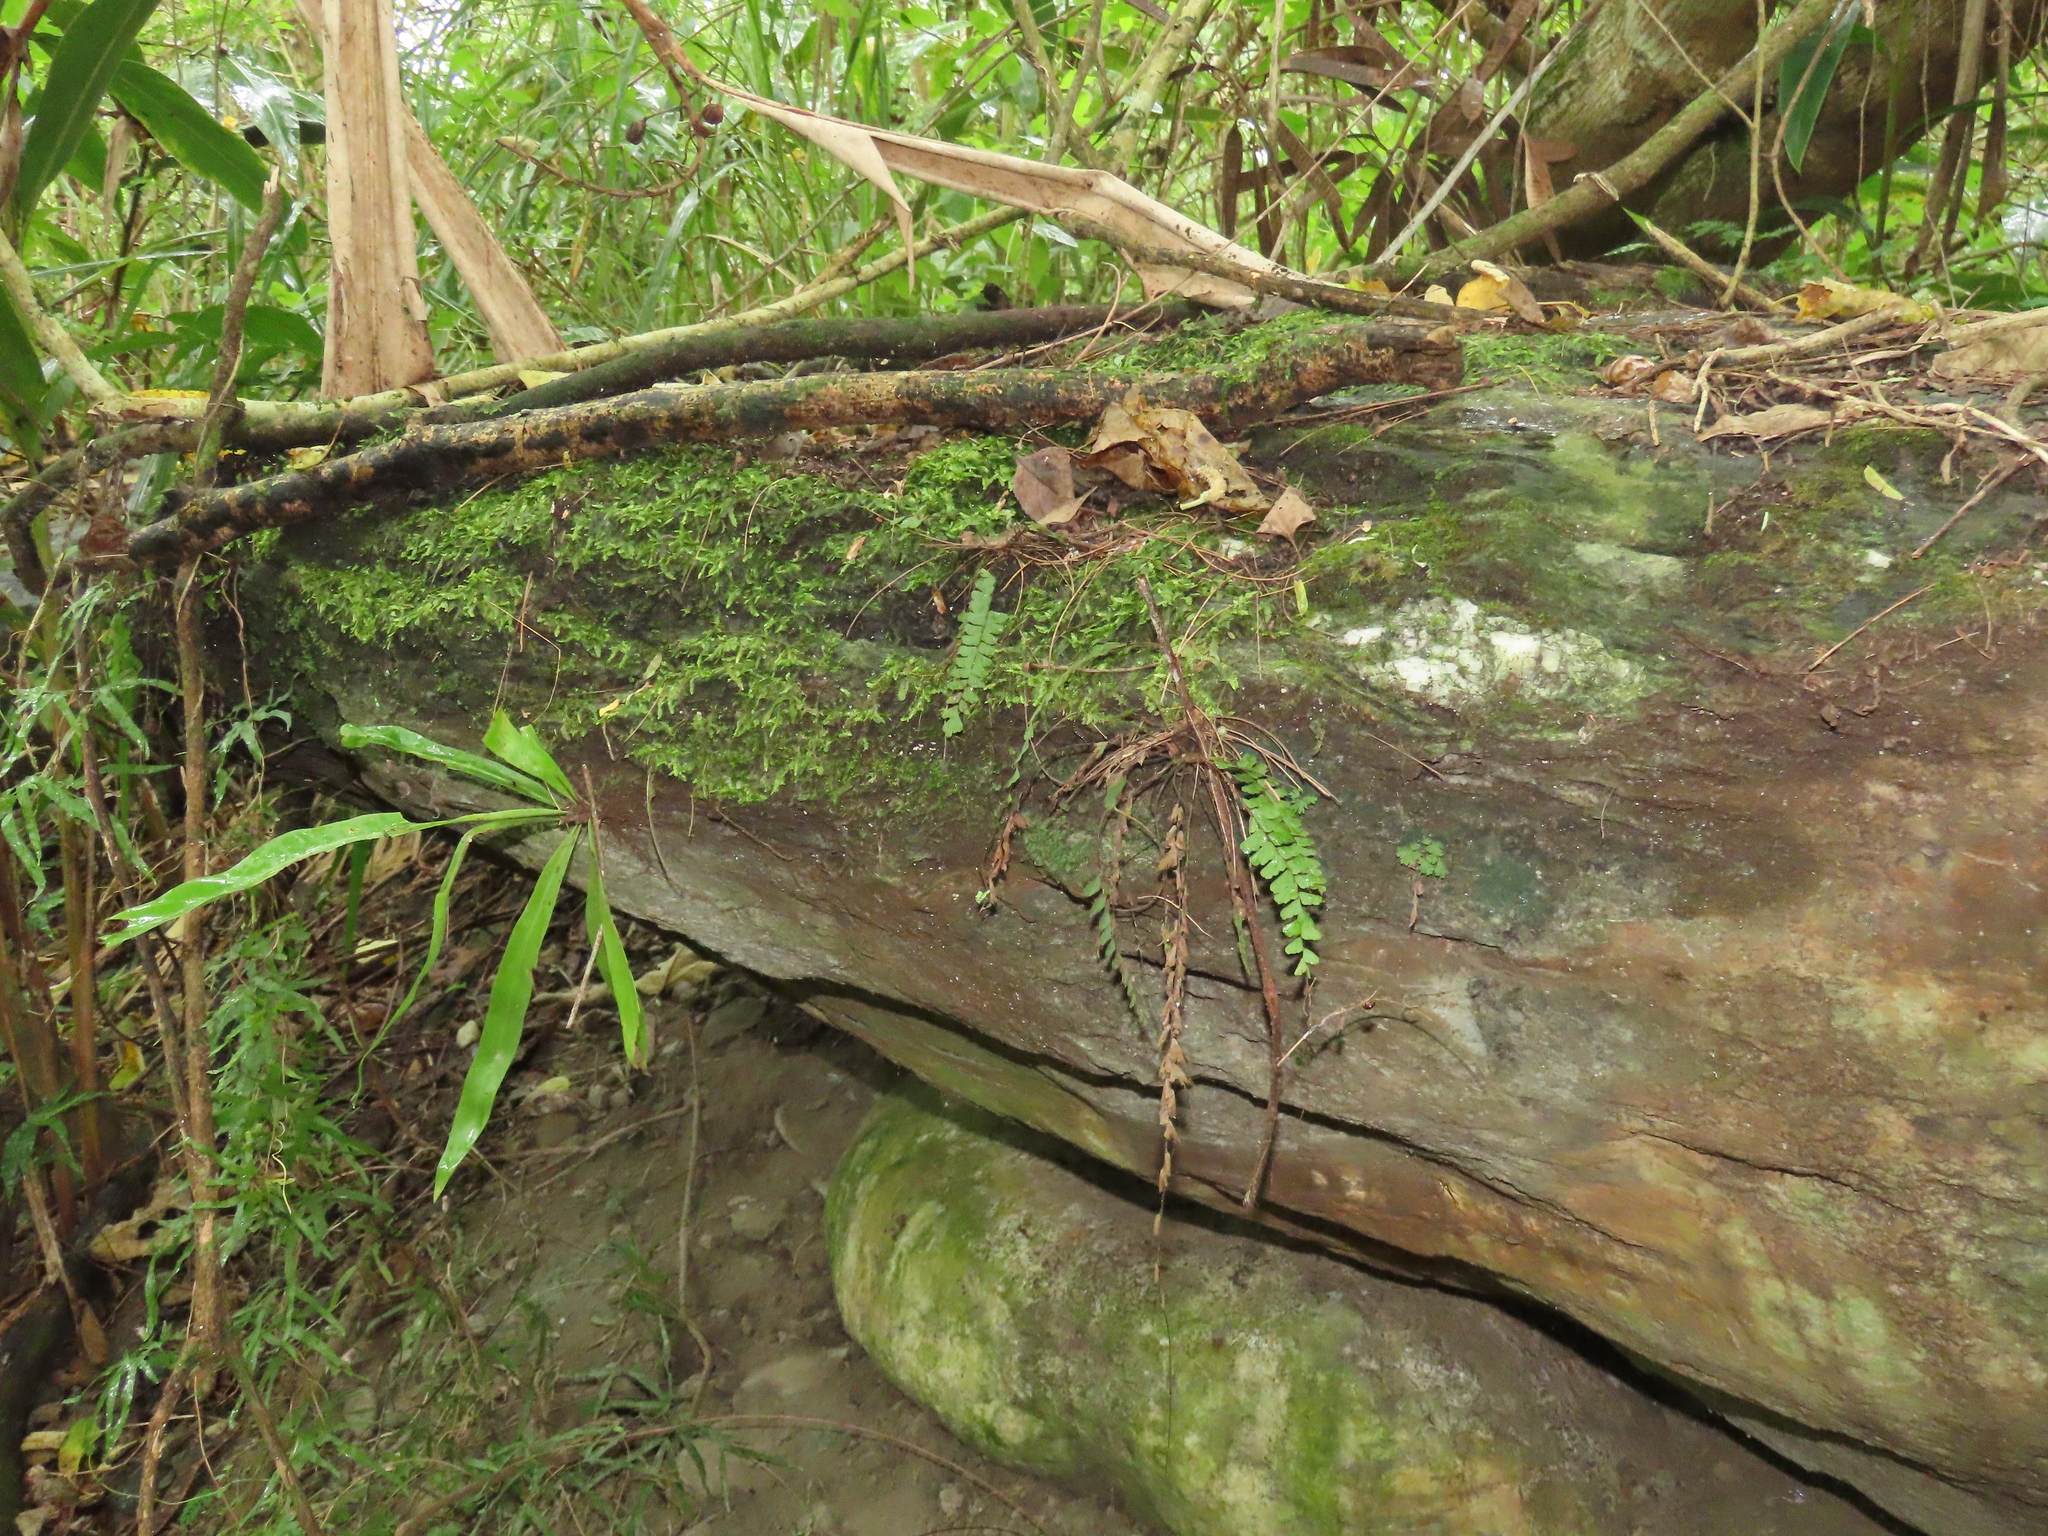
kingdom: Plantae
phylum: Tracheophyta
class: Polypodiopsida
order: Polypodiales
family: Pteridaceae
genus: Adiantum
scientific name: Adiantum ciliatum
